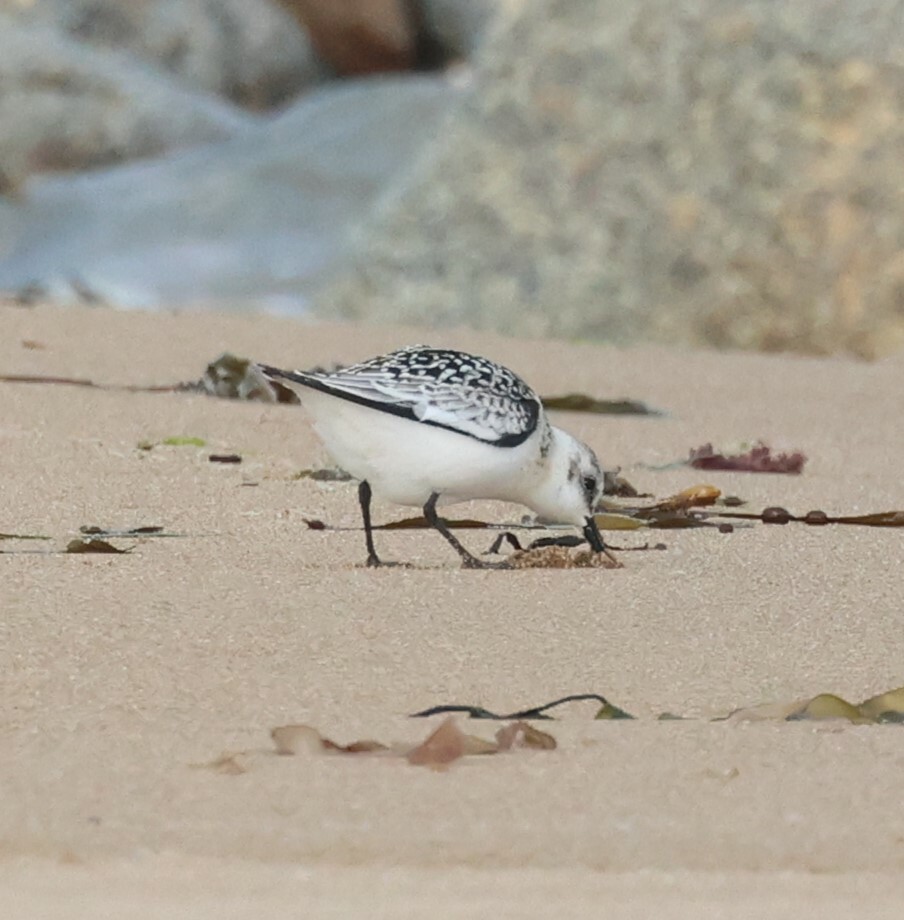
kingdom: Animalia
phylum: Chordata
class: Aves
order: Charadriiformes
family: Scolopacidae
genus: Calidris
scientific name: Calidris alba
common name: Sanderling
